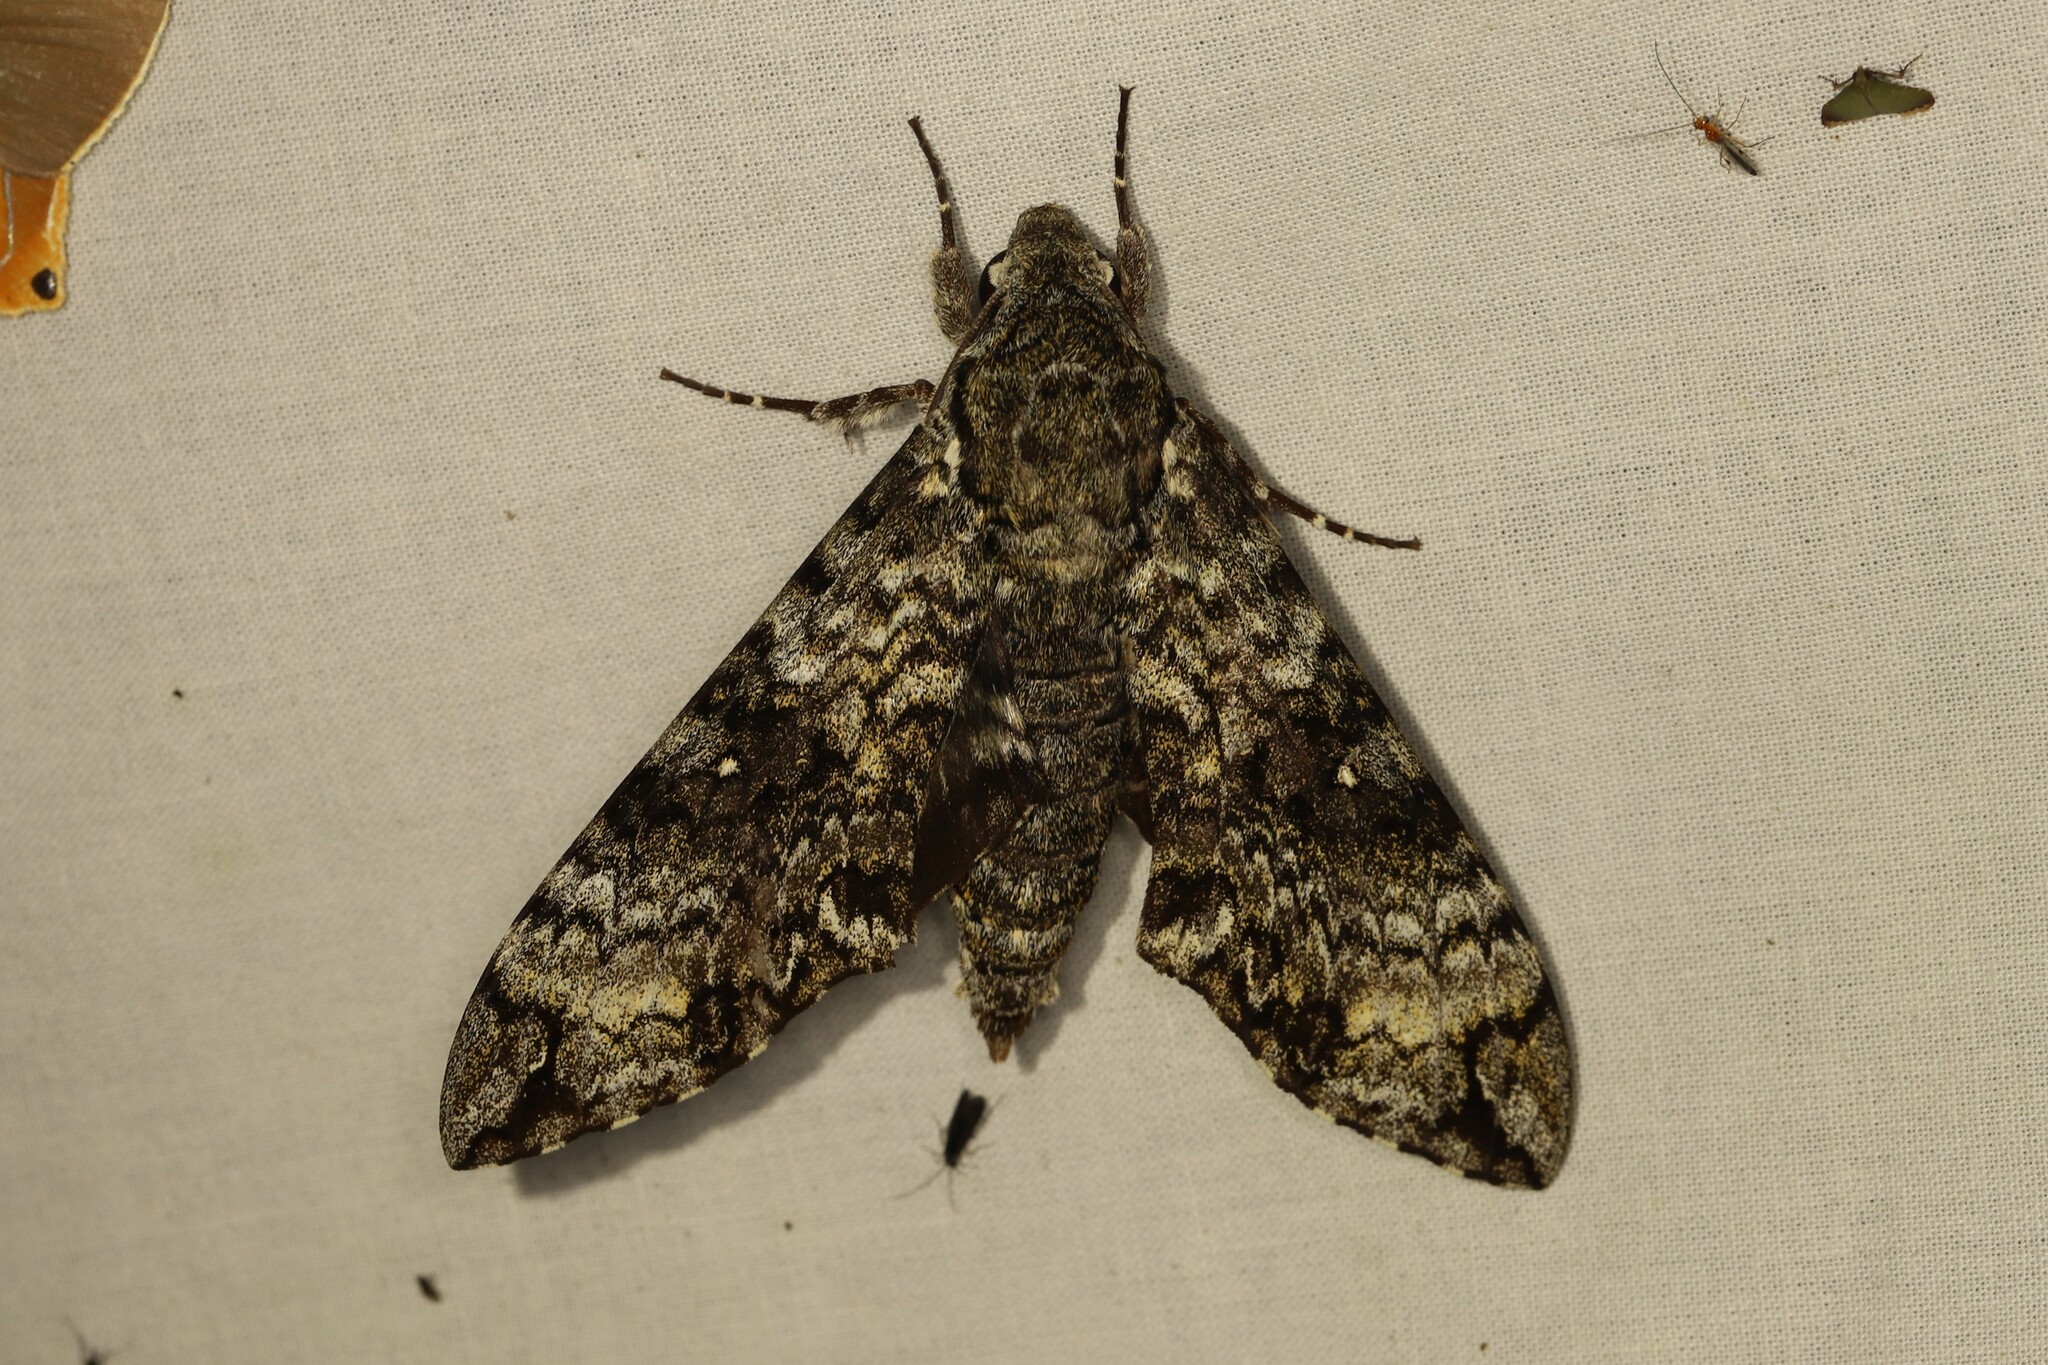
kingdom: Animalia
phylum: Arthropoda
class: Insecta
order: Lepidoptera
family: Sphingidae
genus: Manduca
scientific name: Manduca schausi
